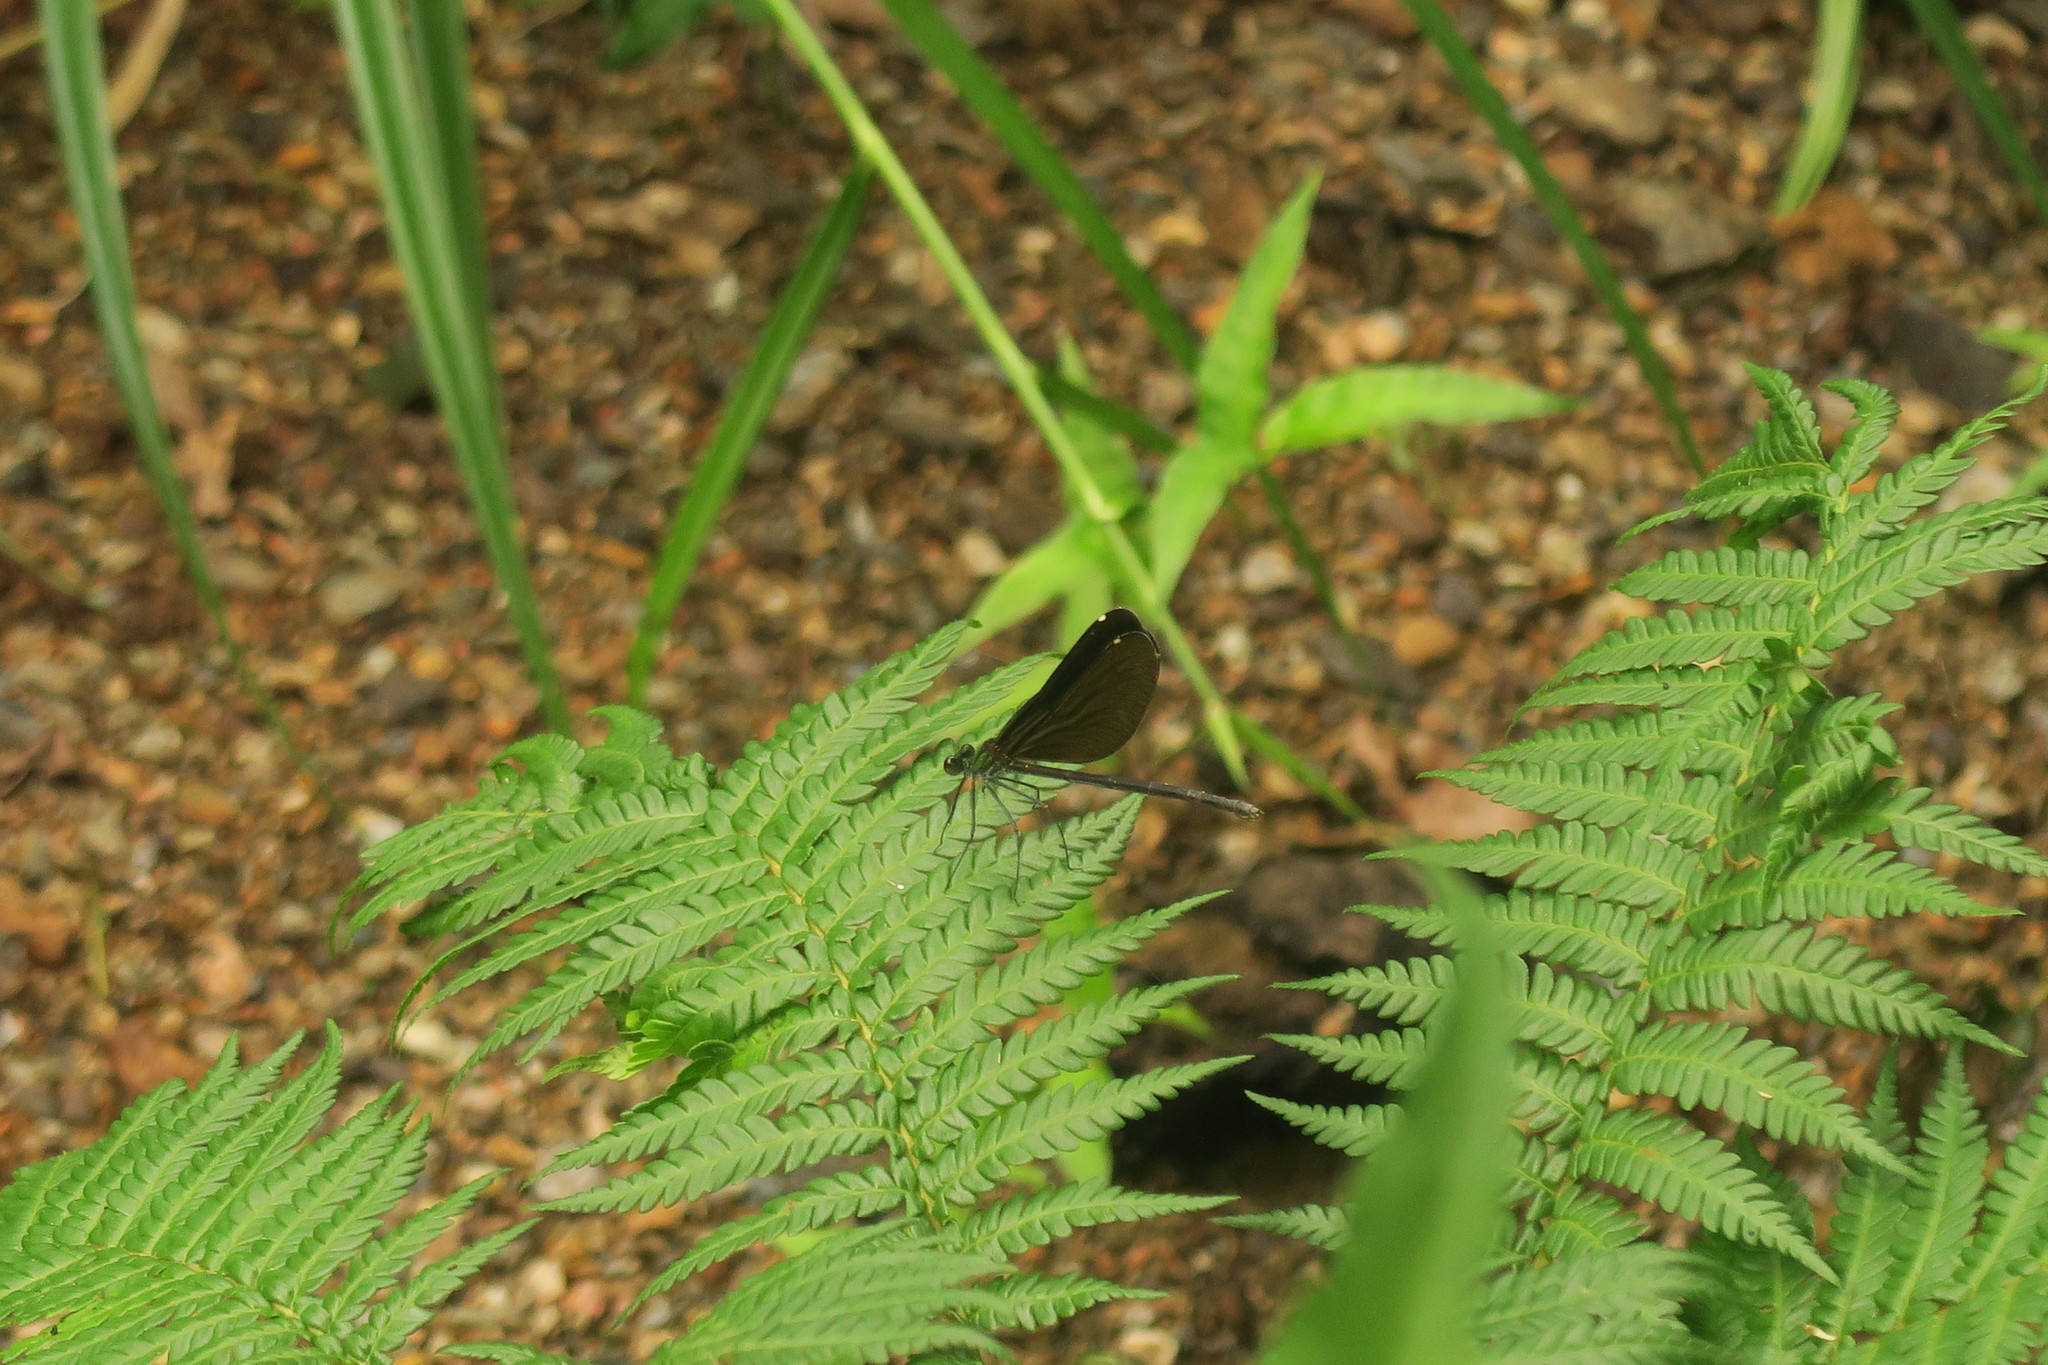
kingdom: Animalia
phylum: Arthropoda
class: Insecta
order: Odonata
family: Calopterygidae
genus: Matrona
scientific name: Matrona japonica
